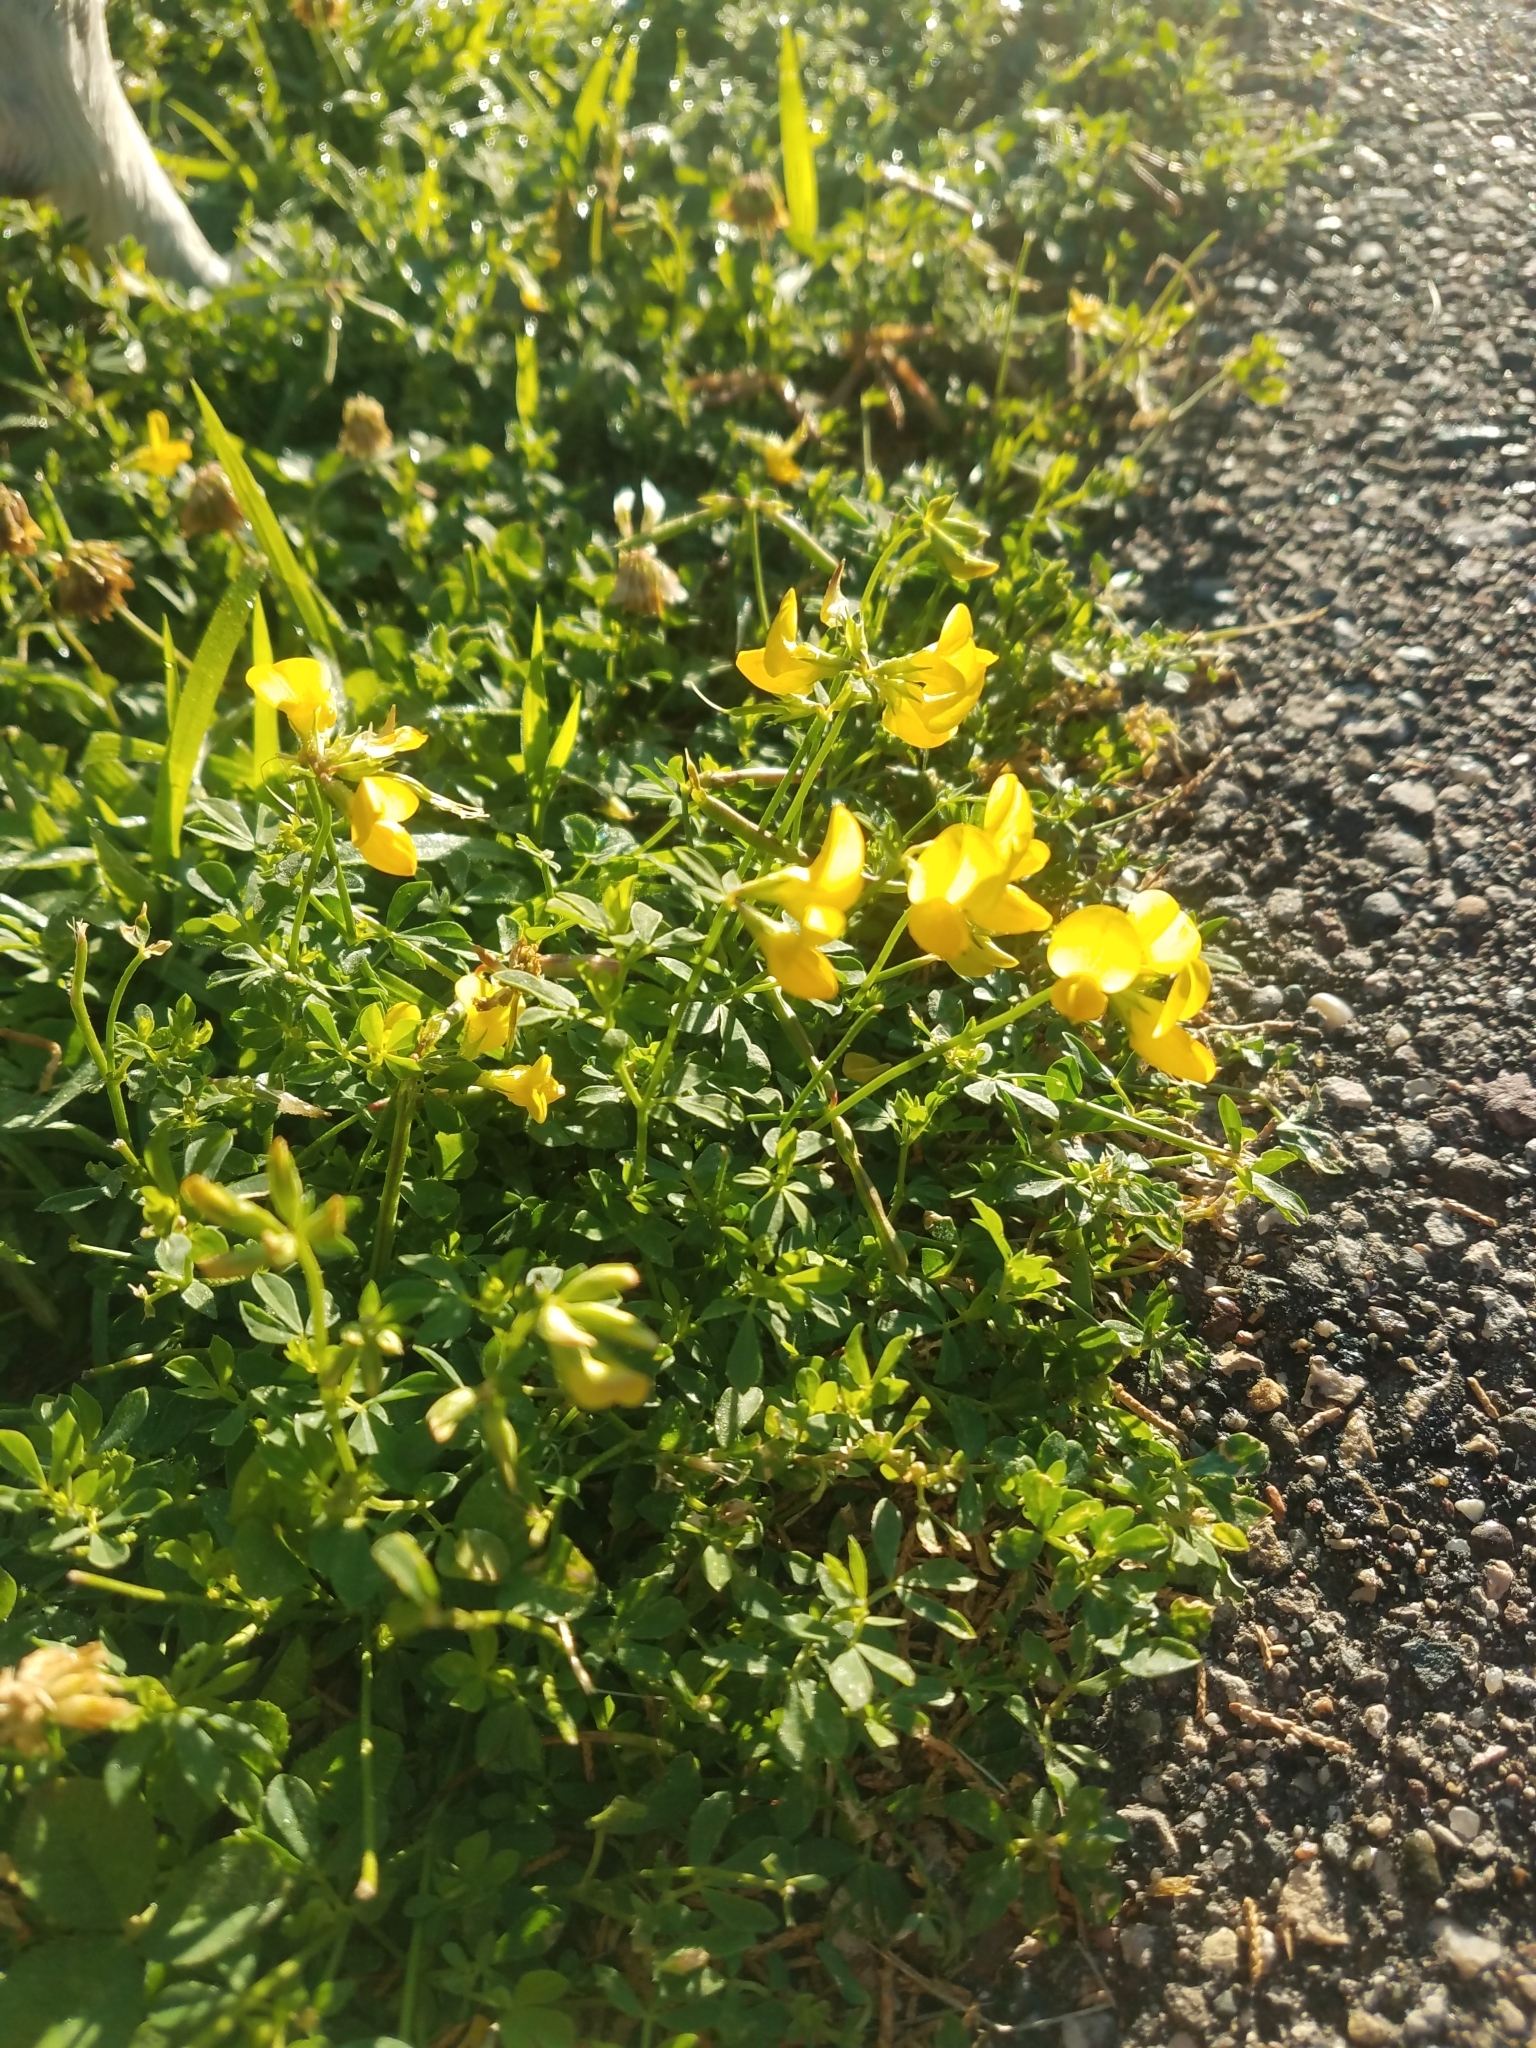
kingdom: Plantae
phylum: Tracheophyta
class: Magnoliopsida
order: Fabales
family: Fabaceae
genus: Lotus
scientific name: Lotus corniculatus
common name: Common bird's-foot-trefoil
